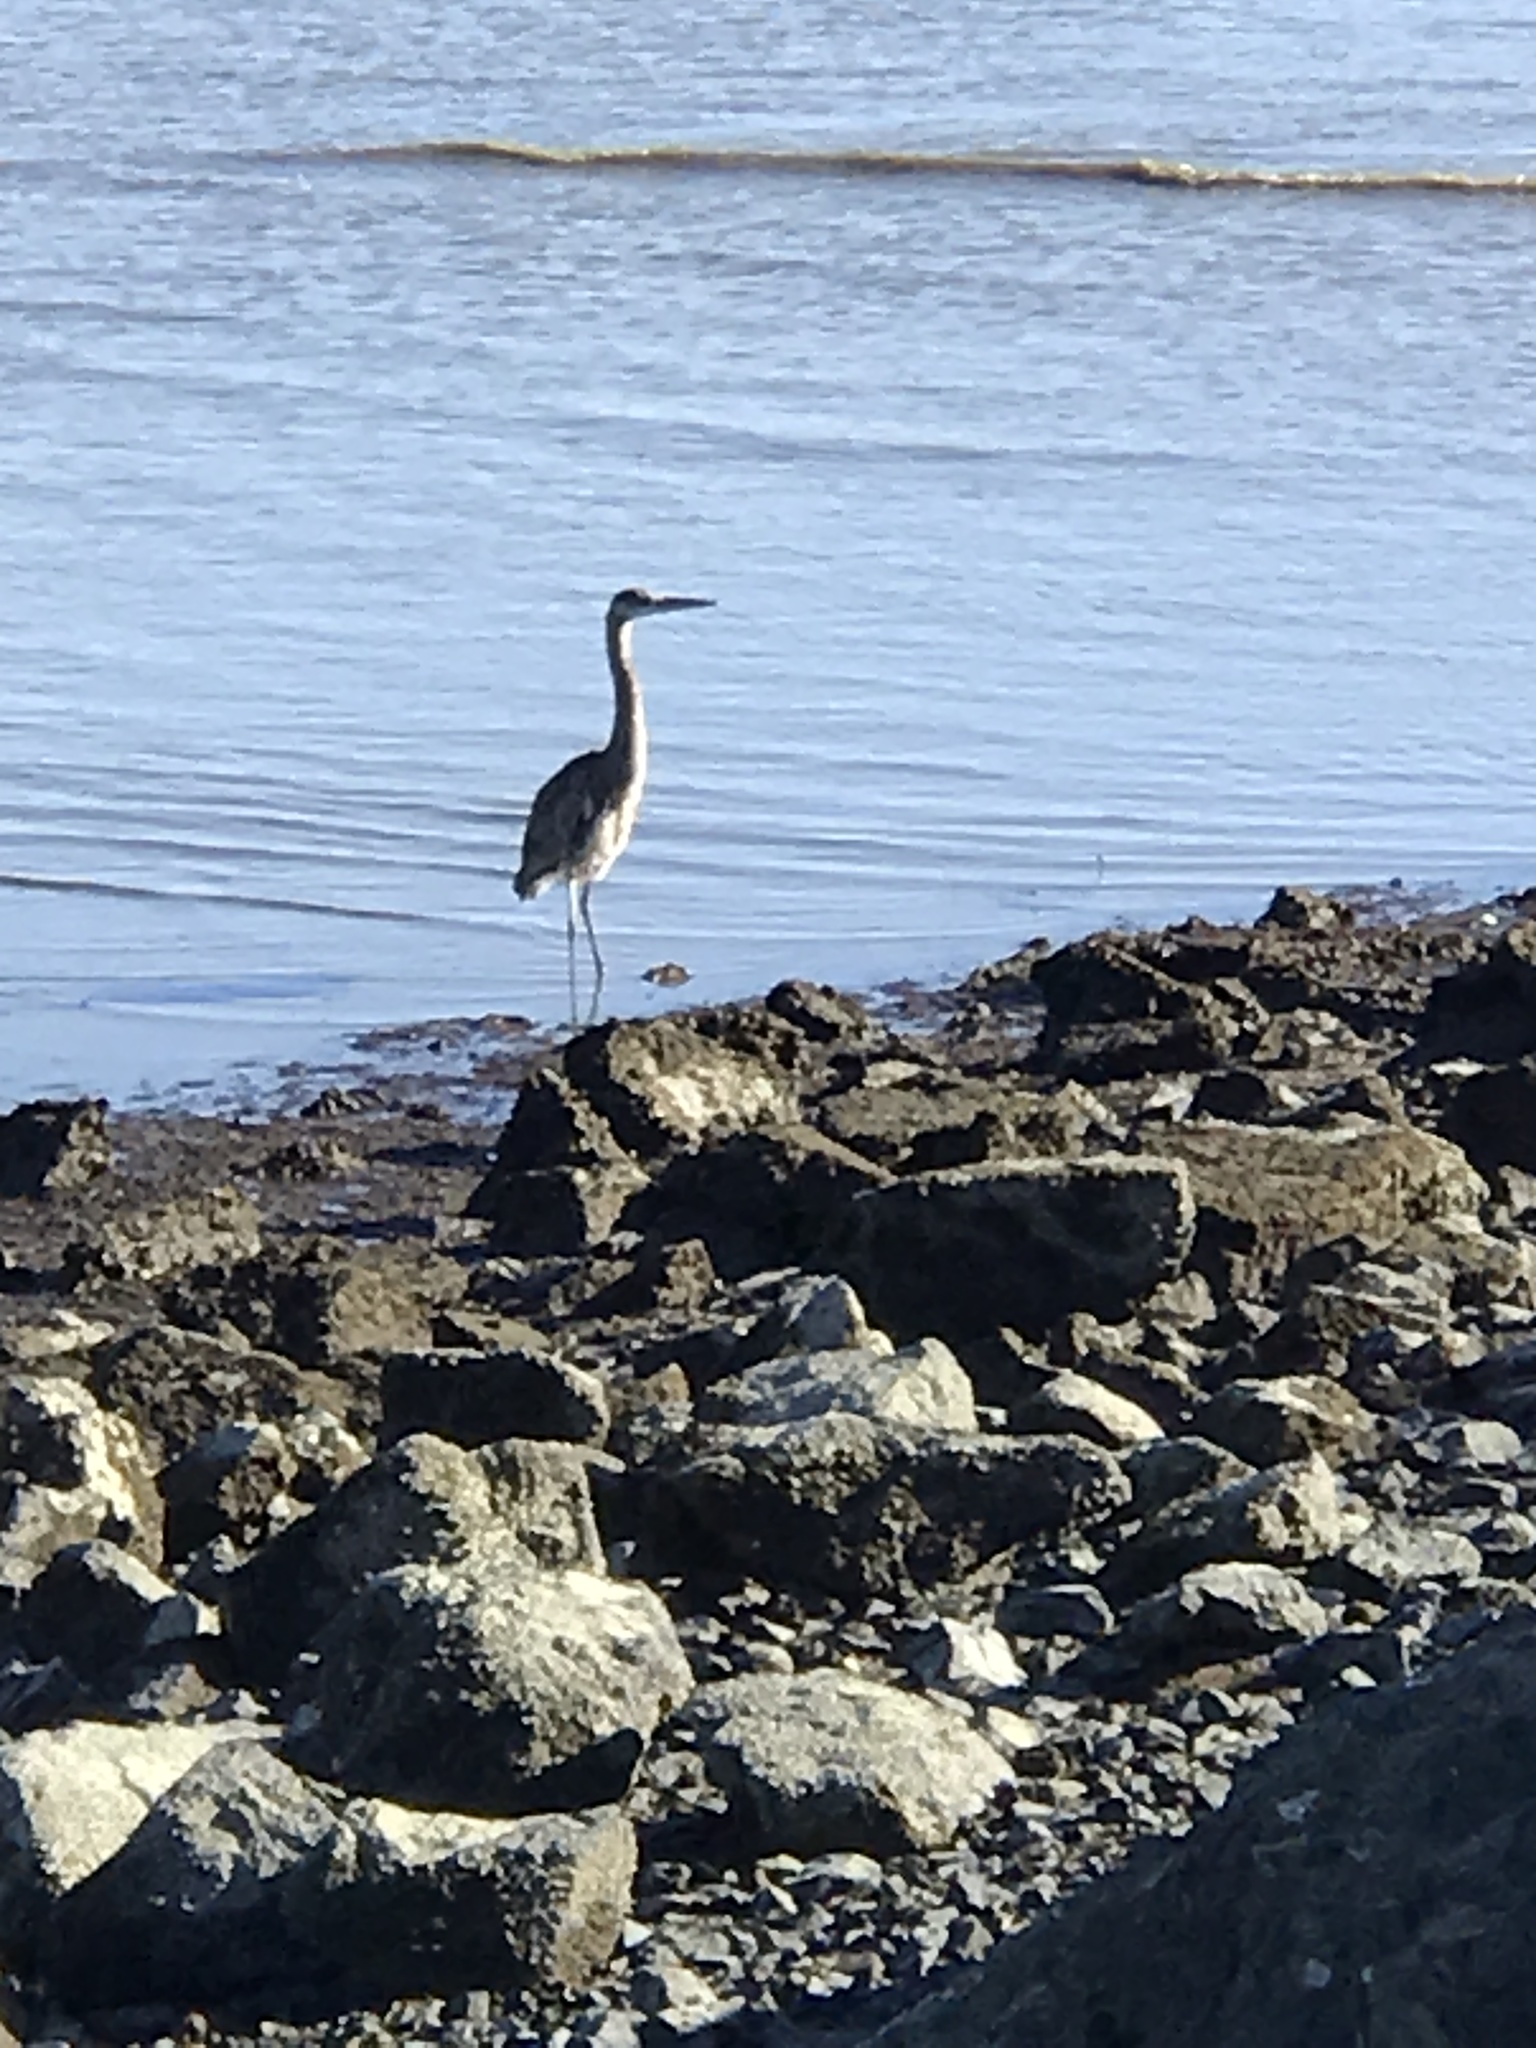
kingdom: Animalia
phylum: Chordata
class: Aves
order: Pelecaniformes
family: Ardeidae
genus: Ardea
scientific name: Ardea herodias
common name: Great blue heron
